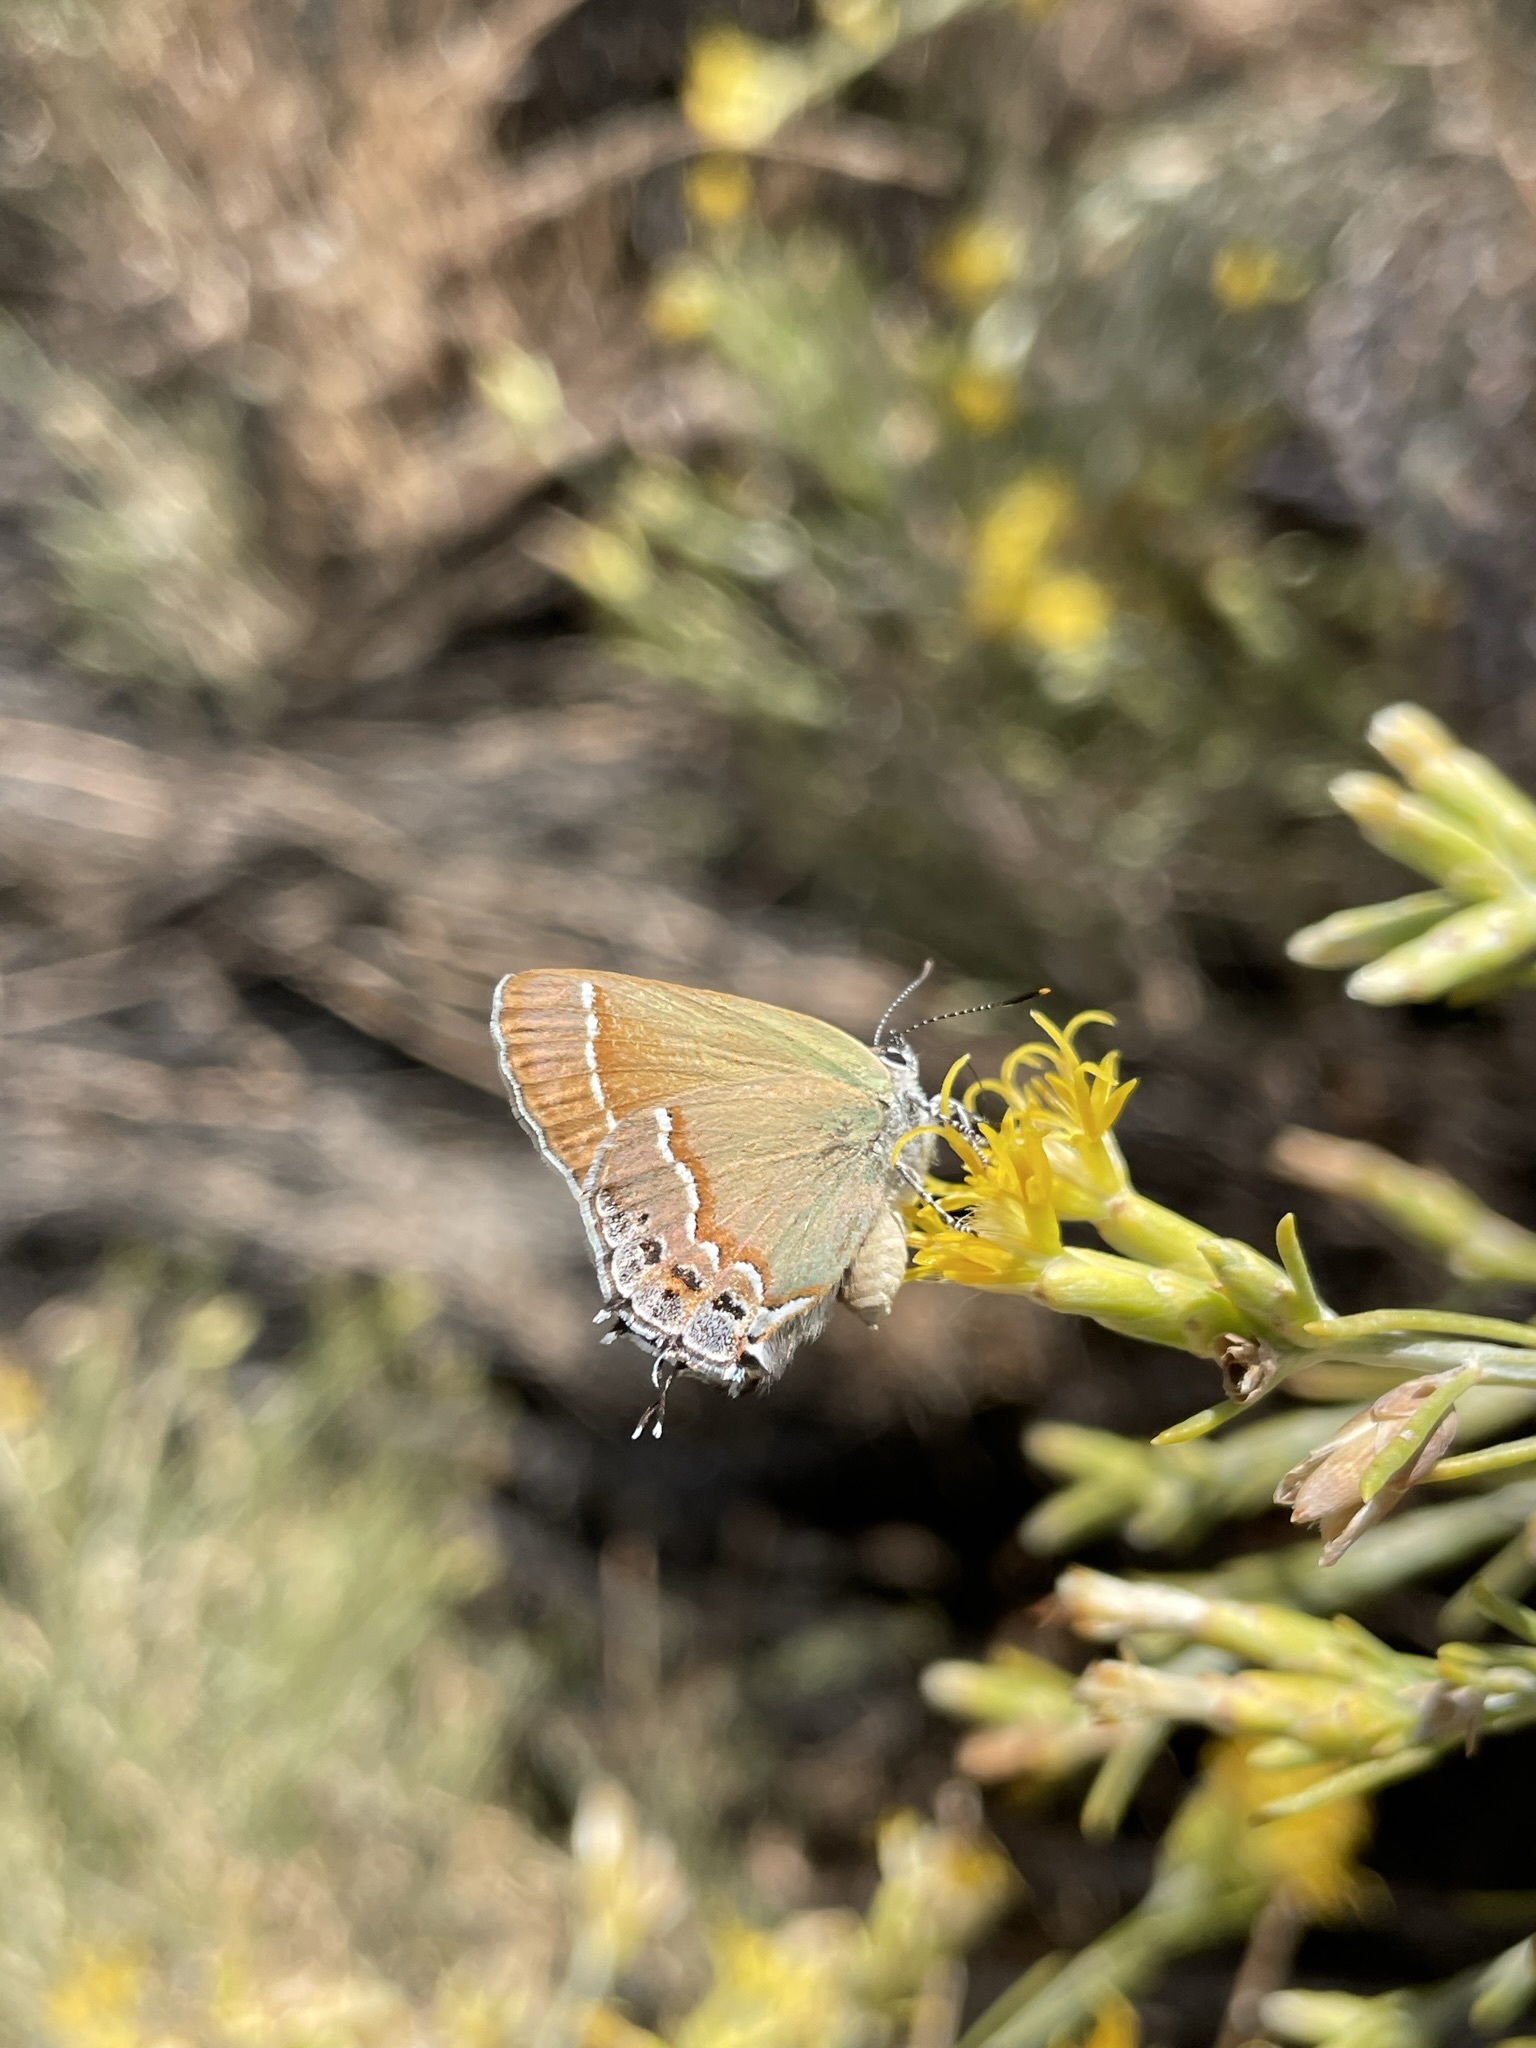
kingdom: Animalia
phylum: Arthropoda
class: Insecta
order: Lepidoptera
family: Lycaenidae
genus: Mitoura
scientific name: Mitoura gryneus
